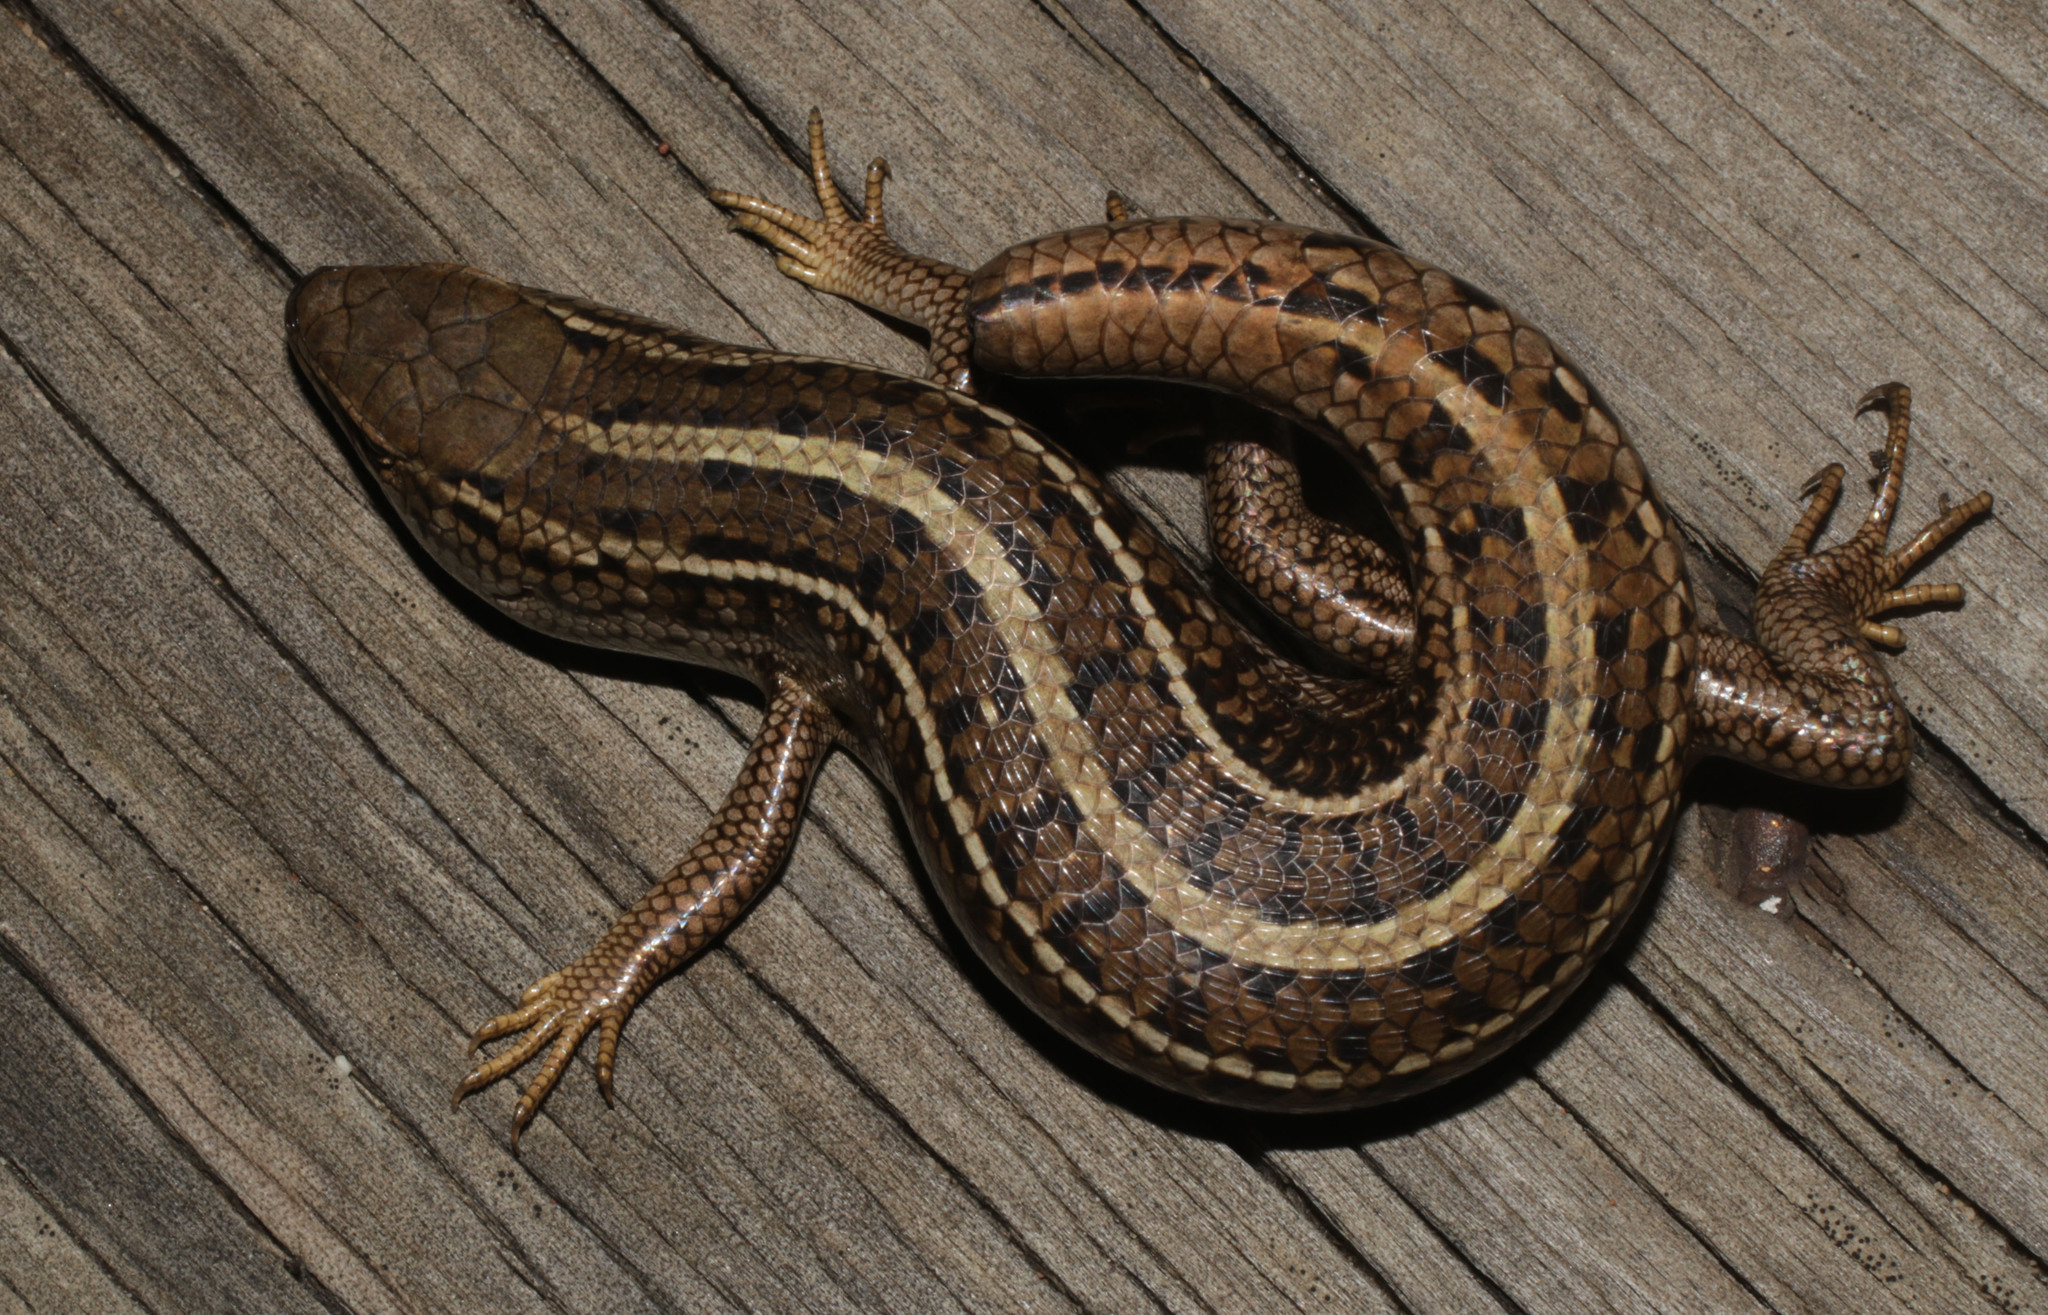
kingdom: Animalia
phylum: Chordata
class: Squamata
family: Scincidae
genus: Trachylepis
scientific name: Trachylepis capensis
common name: Cape skink
